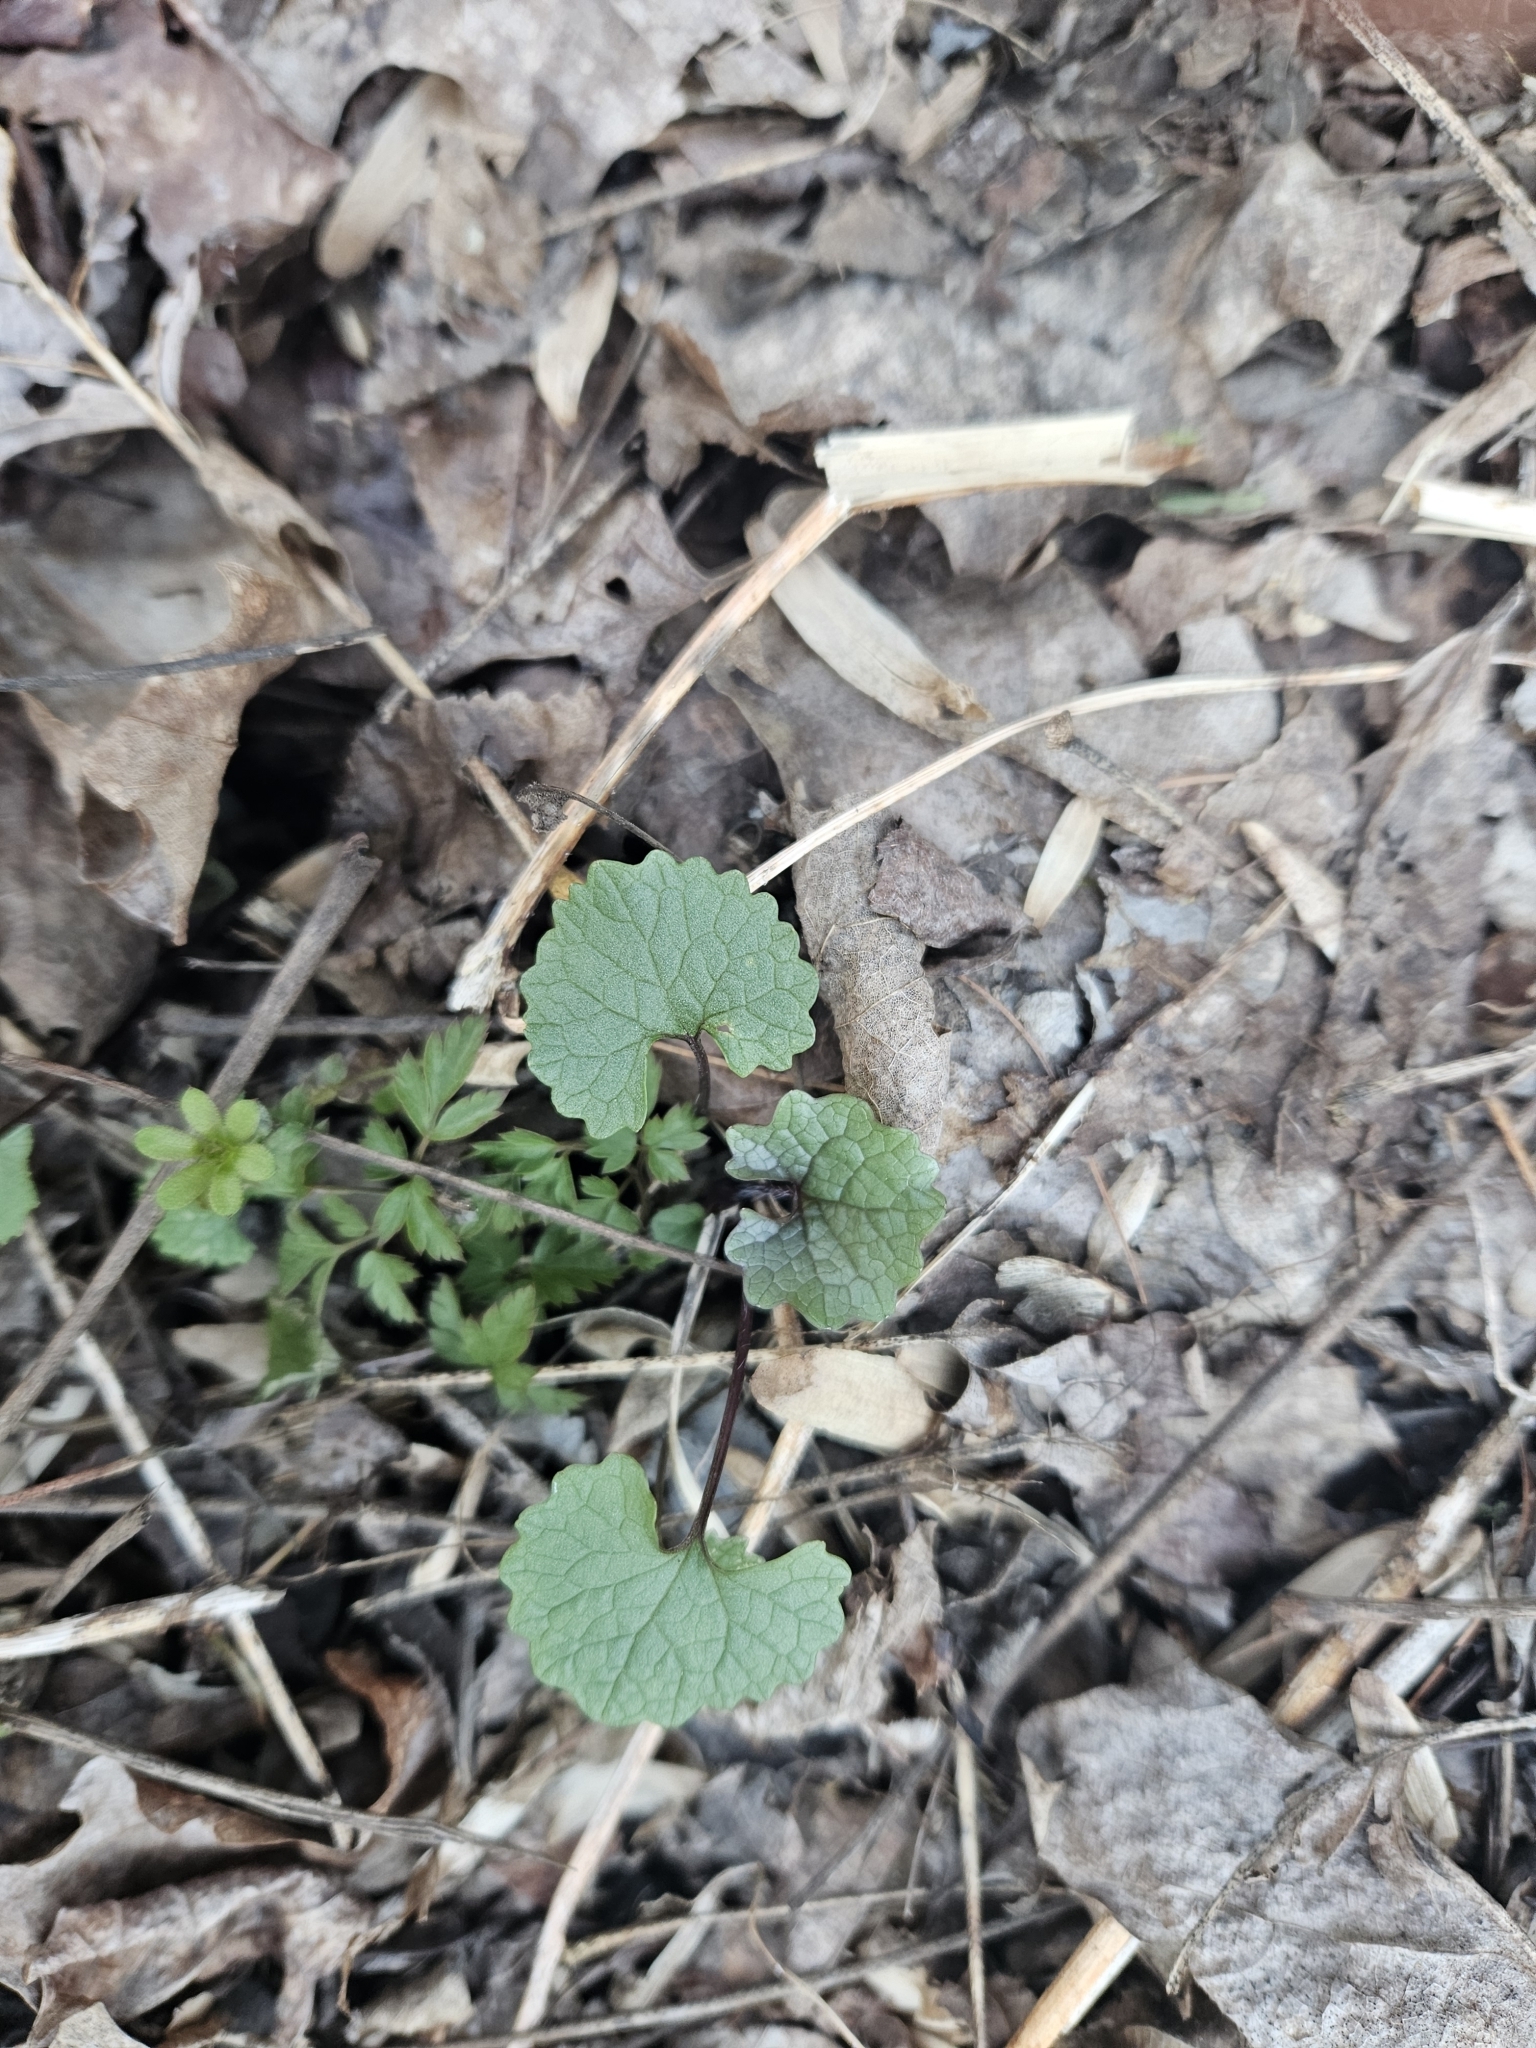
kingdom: Plantae
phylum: Tracheophyta
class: Magnoliopsida
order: Brassicales
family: Brassicaceae
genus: Alliaria
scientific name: Alliaria petiolata
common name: Garlic mustard
